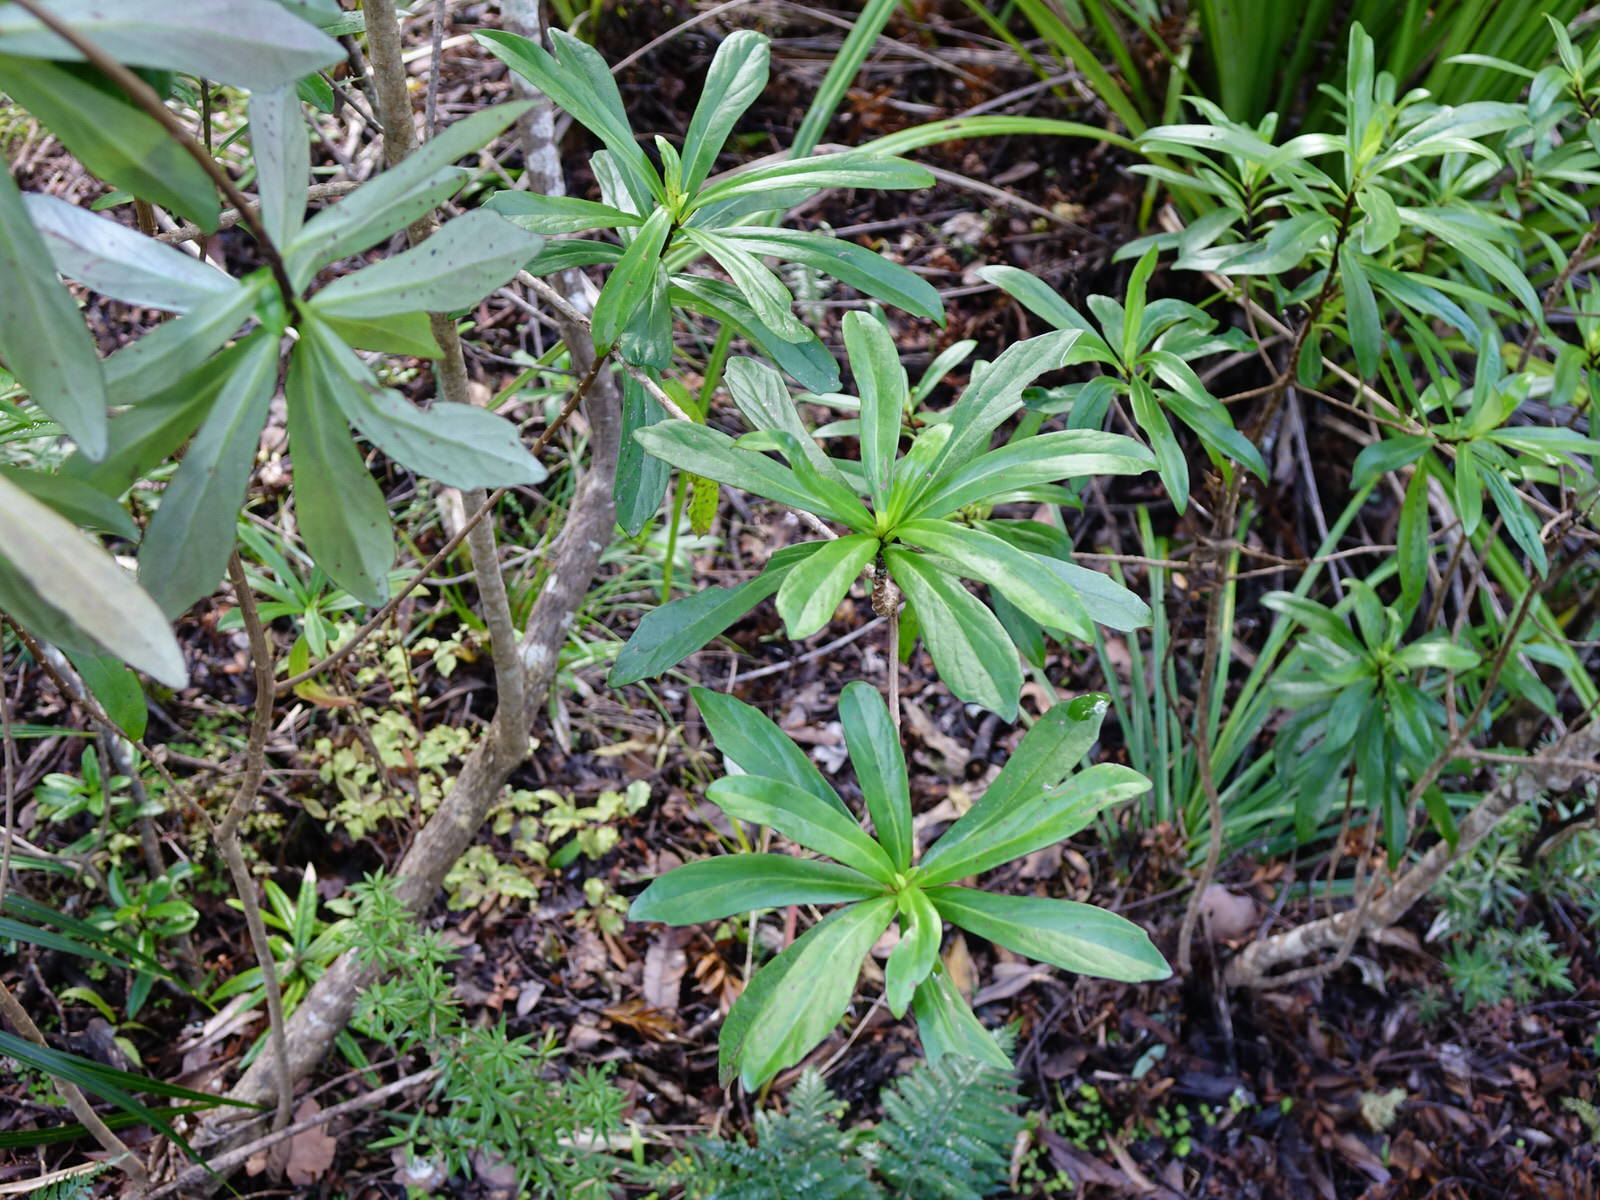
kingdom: Plantae
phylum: Tracheophyta
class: Magnoliopsida
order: Asterales
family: Asteraceae
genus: Brachyglottis
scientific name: Brachyglottis kirkii
